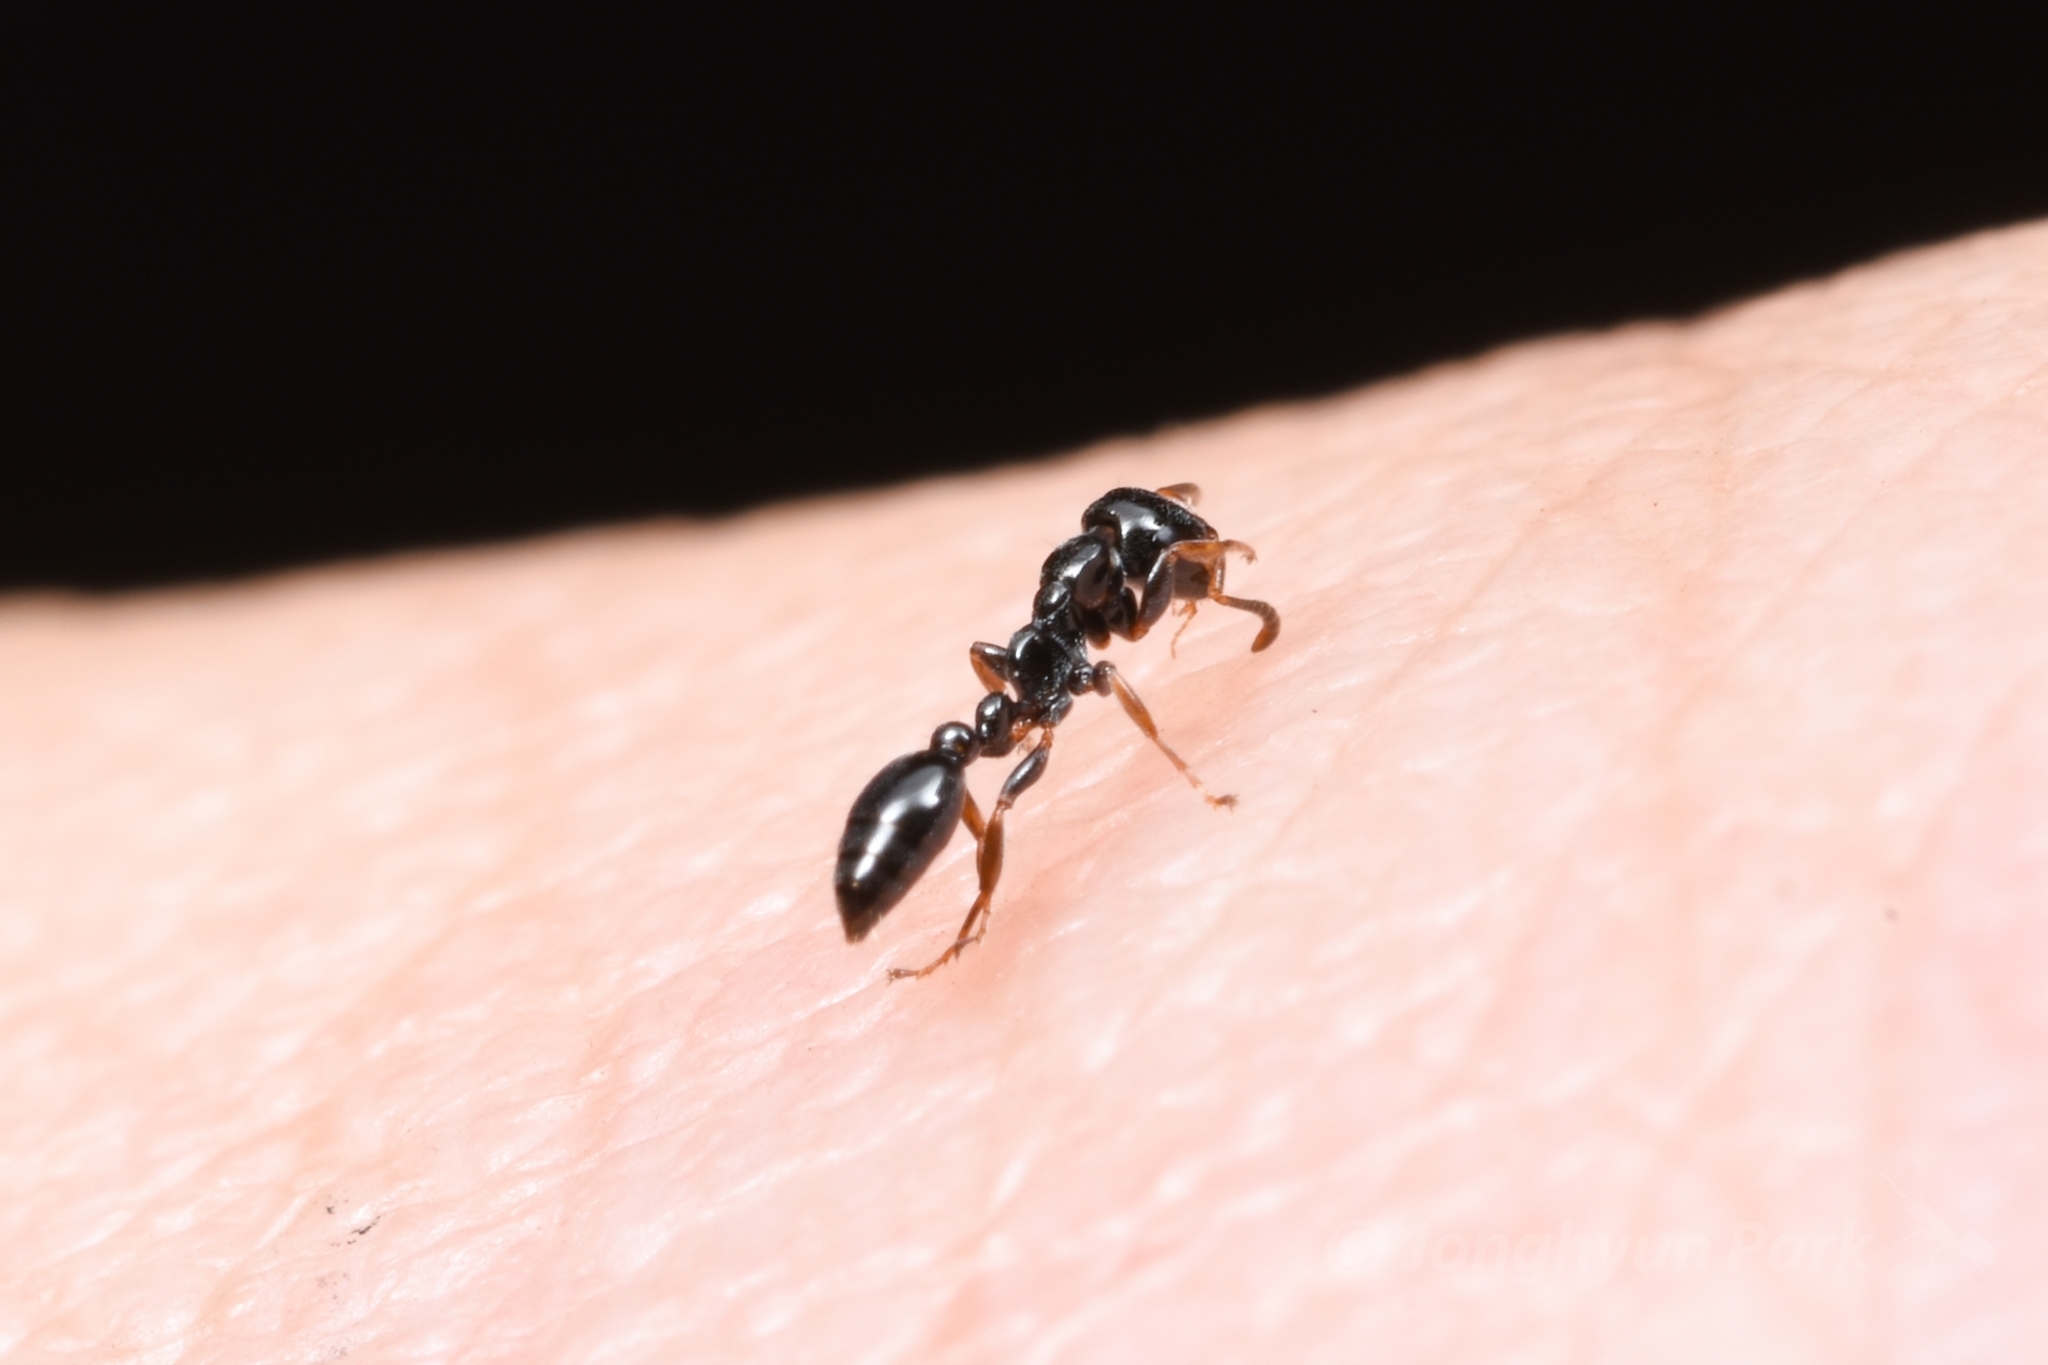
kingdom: Animalia
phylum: Arthropoda
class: Insecta
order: Hymenoptera
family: Formicidae
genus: Tetraponera
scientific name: Tetraponera nitida
